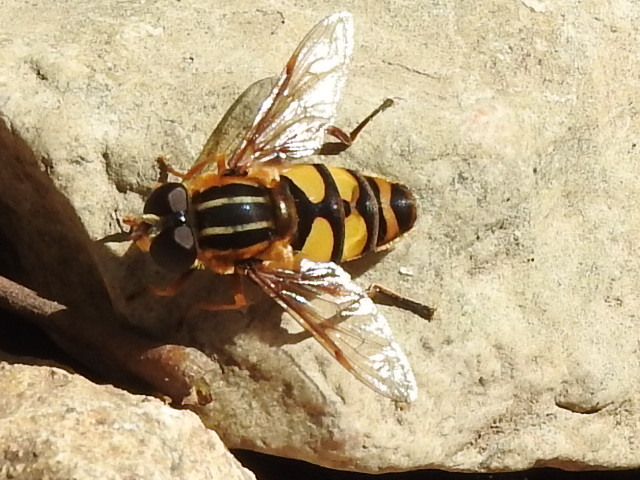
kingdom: Animalia
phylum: Arthropoda
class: Insecta
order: Diptera
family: Syrphidae
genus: Helophilus
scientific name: Helophilus fasciatus
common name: Narrow-headed marsh fly
